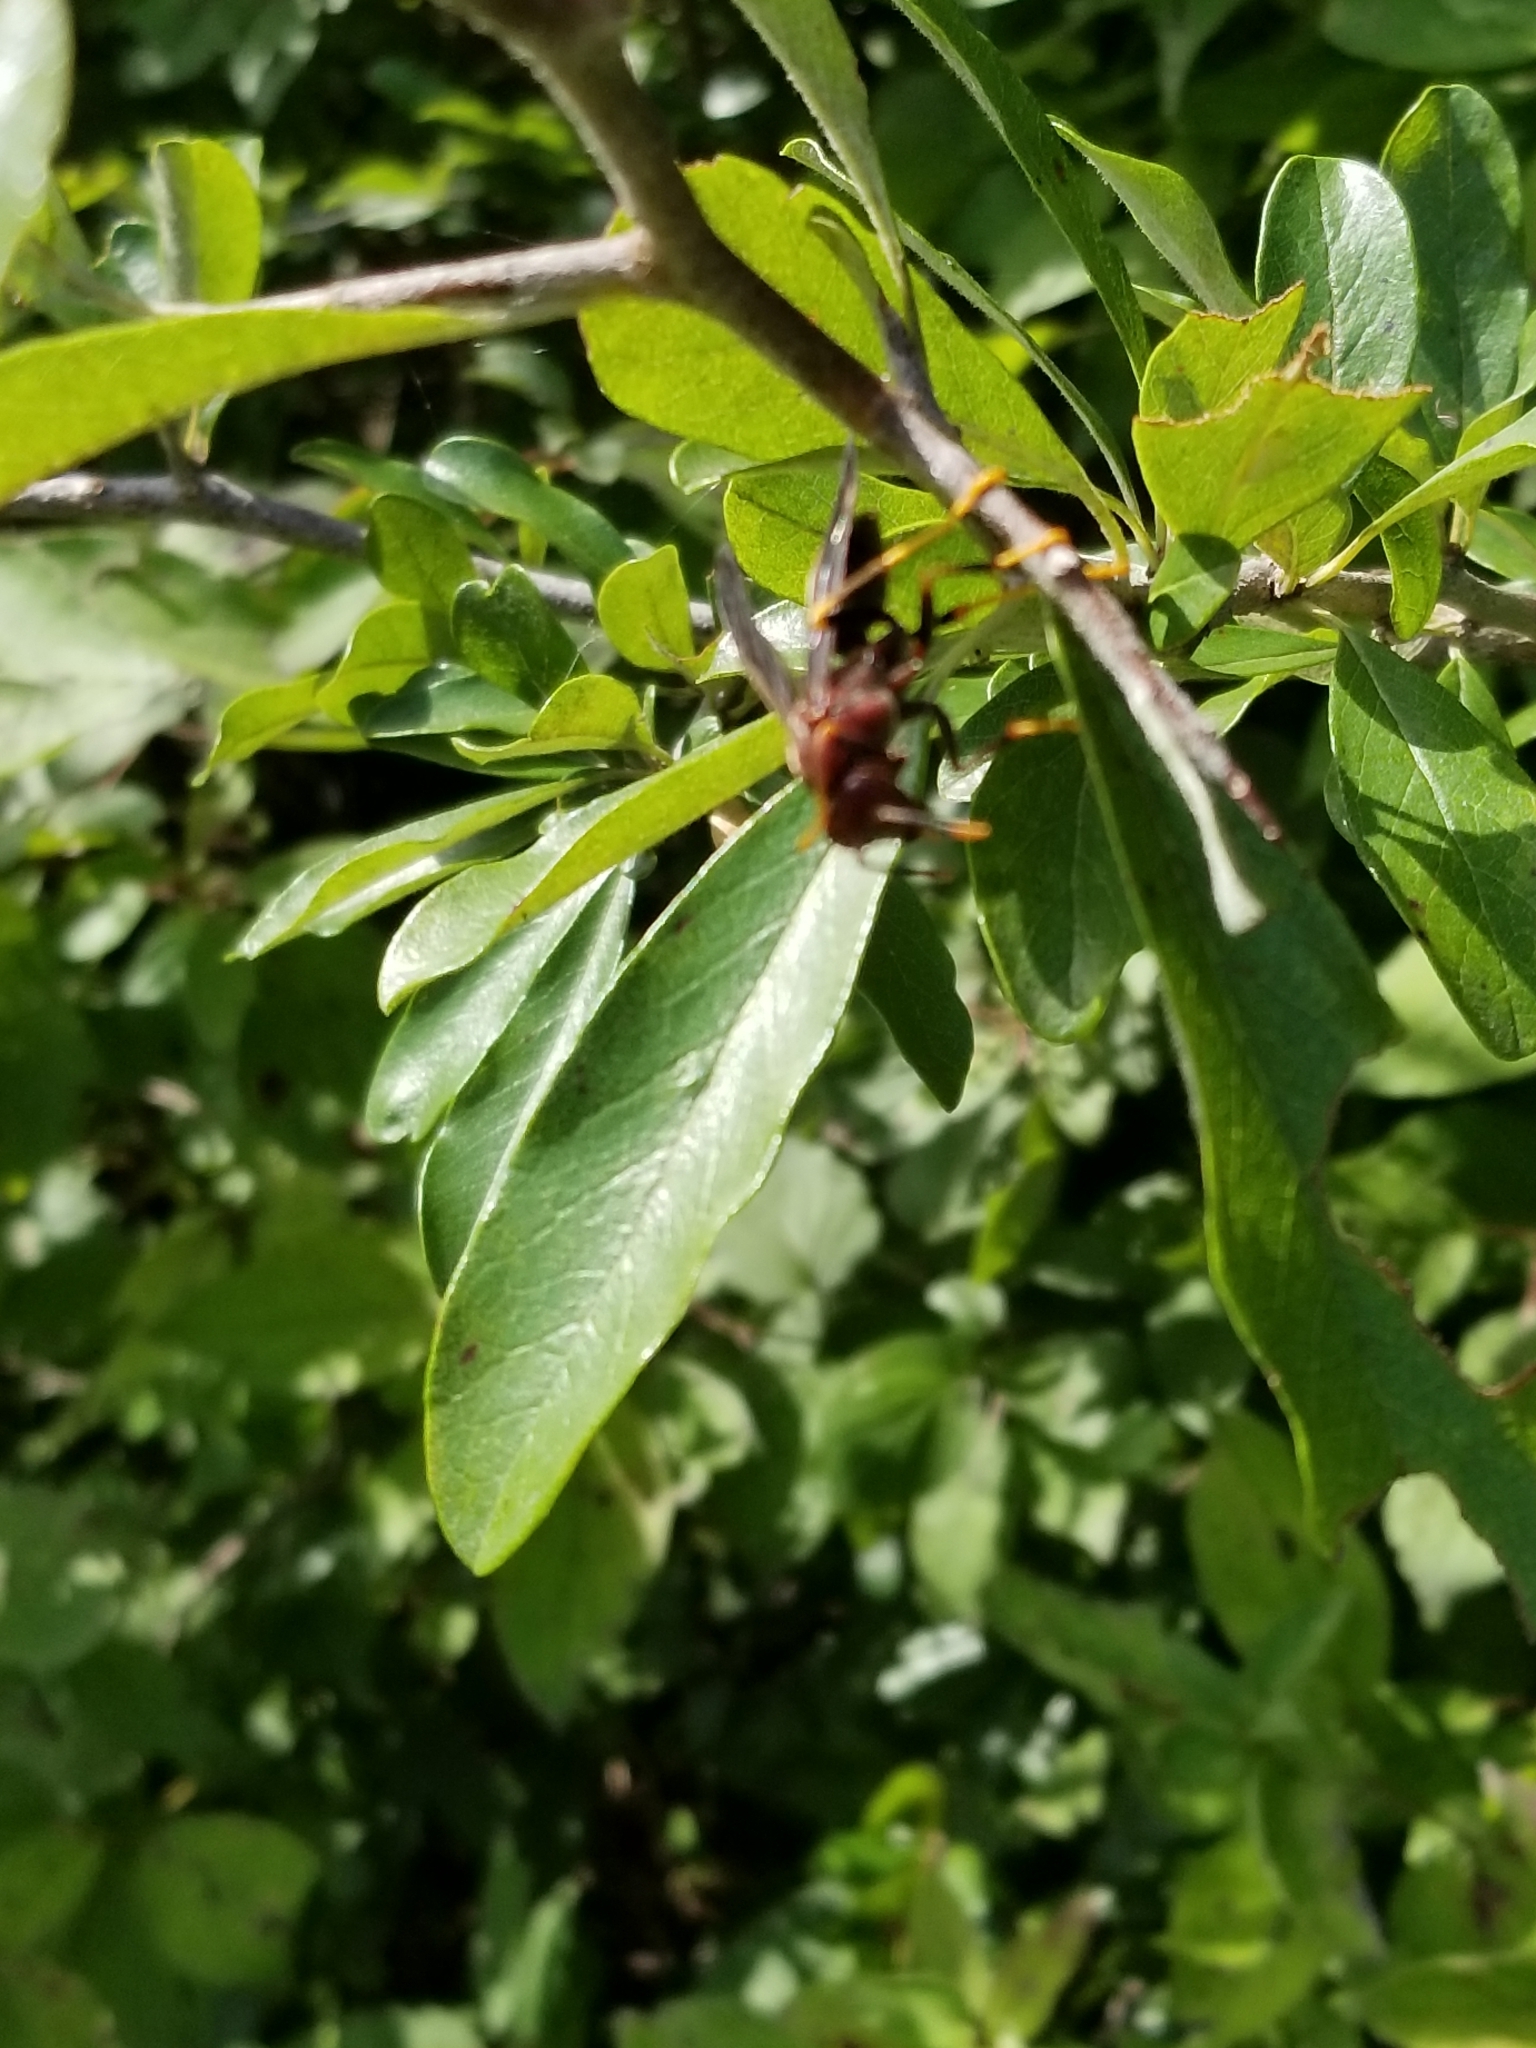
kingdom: Animalia
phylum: Arthropoda
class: Insecta
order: Hymenoptera
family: Eumenidae
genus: Polistes
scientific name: Polistes annularis
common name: Ringed paper wasp
